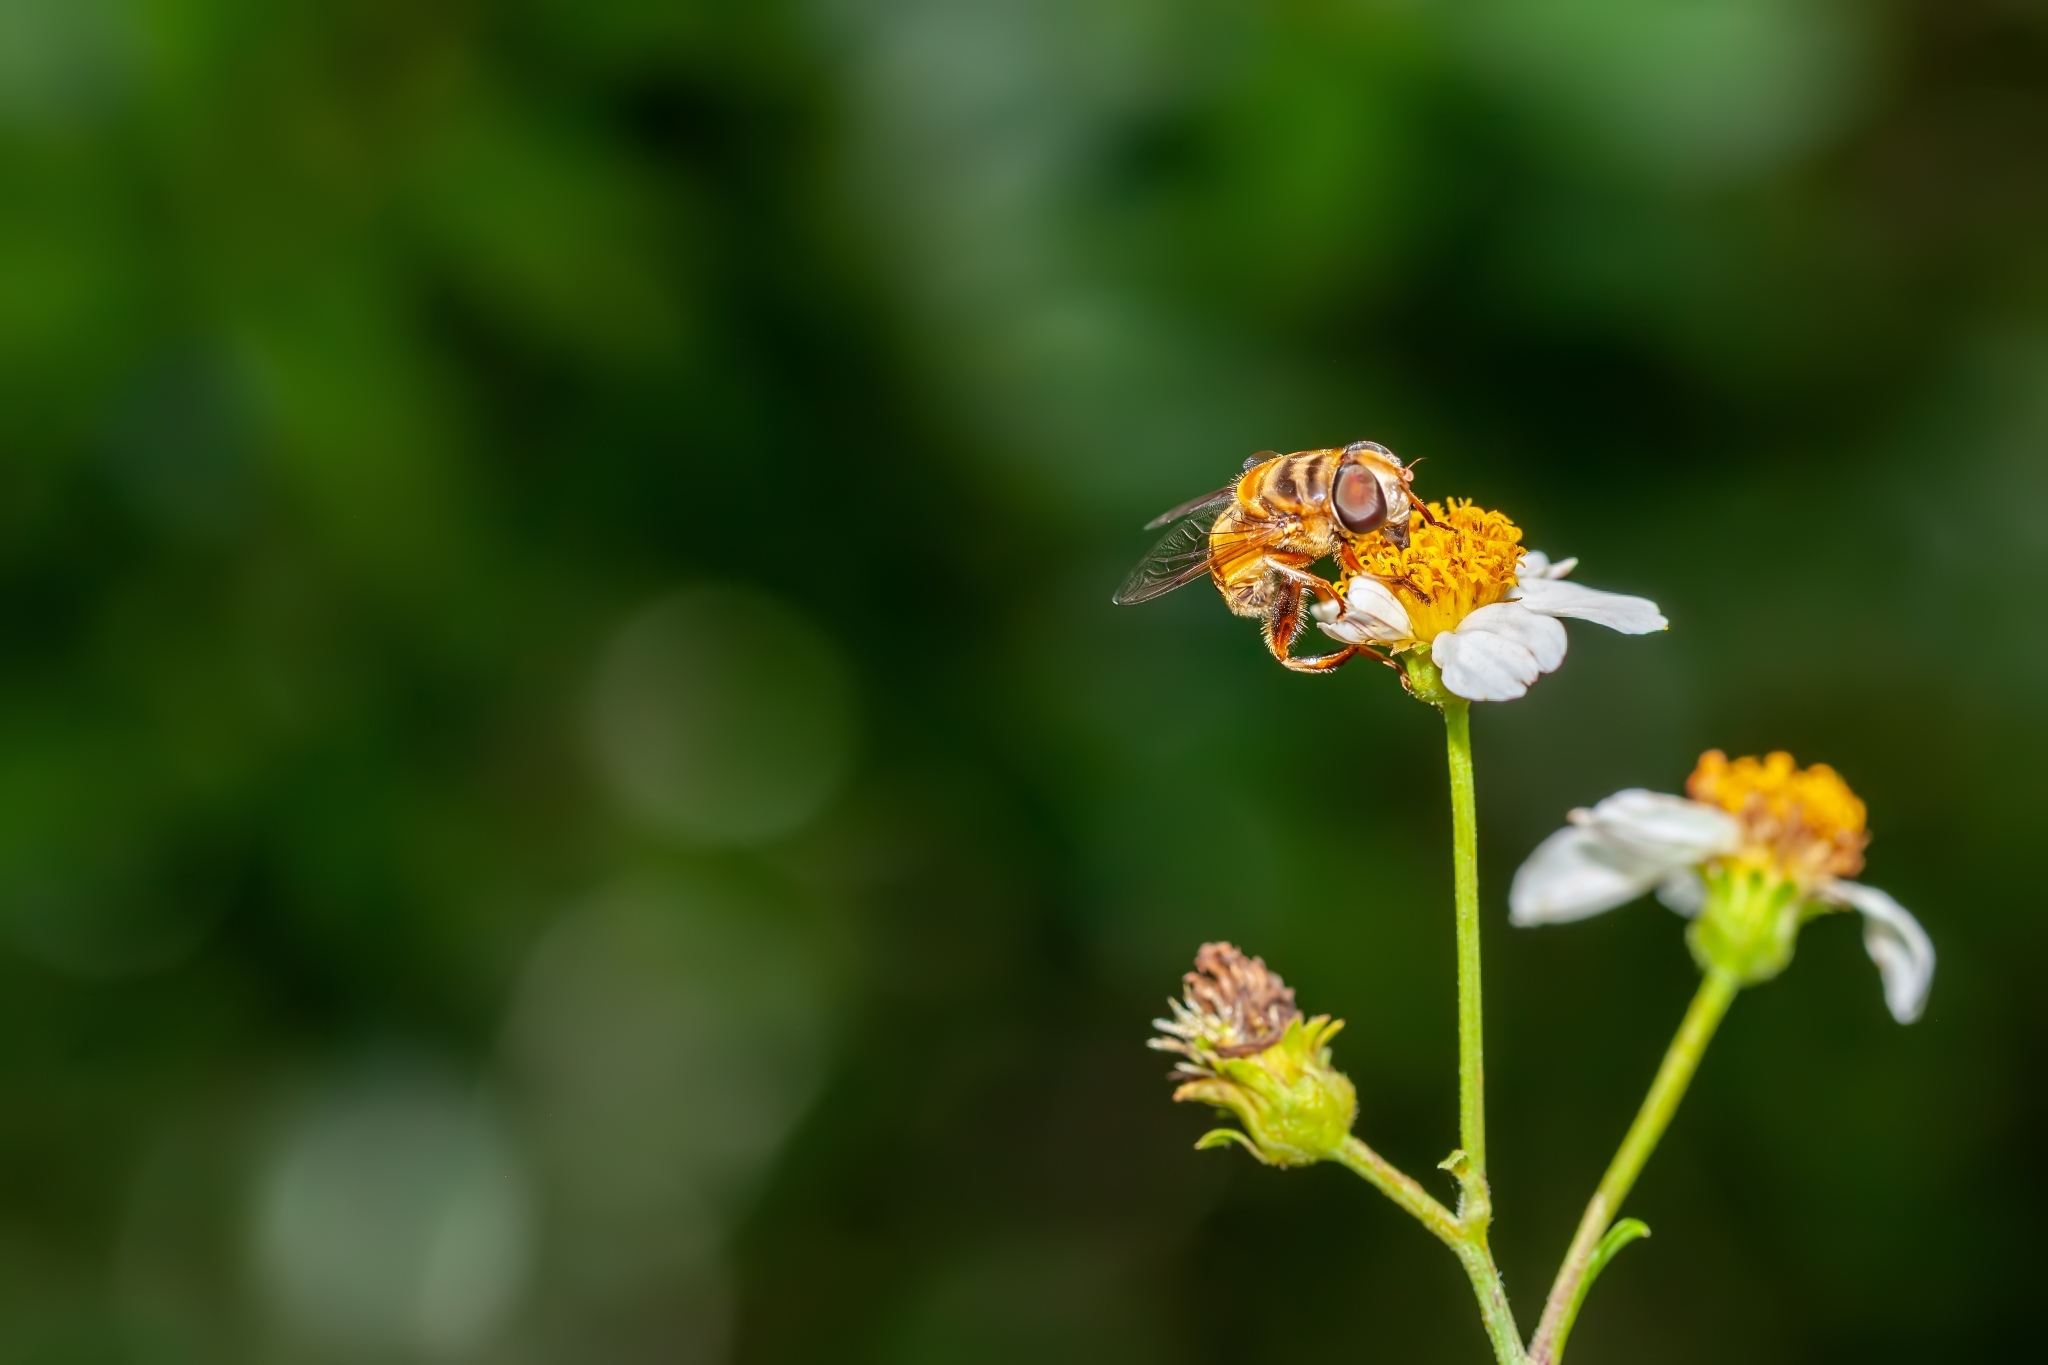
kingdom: Animalia
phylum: Arthropoda
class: Insecta
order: Diptera
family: Syrphidae
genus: Palpada
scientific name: Palpada vinetorum
